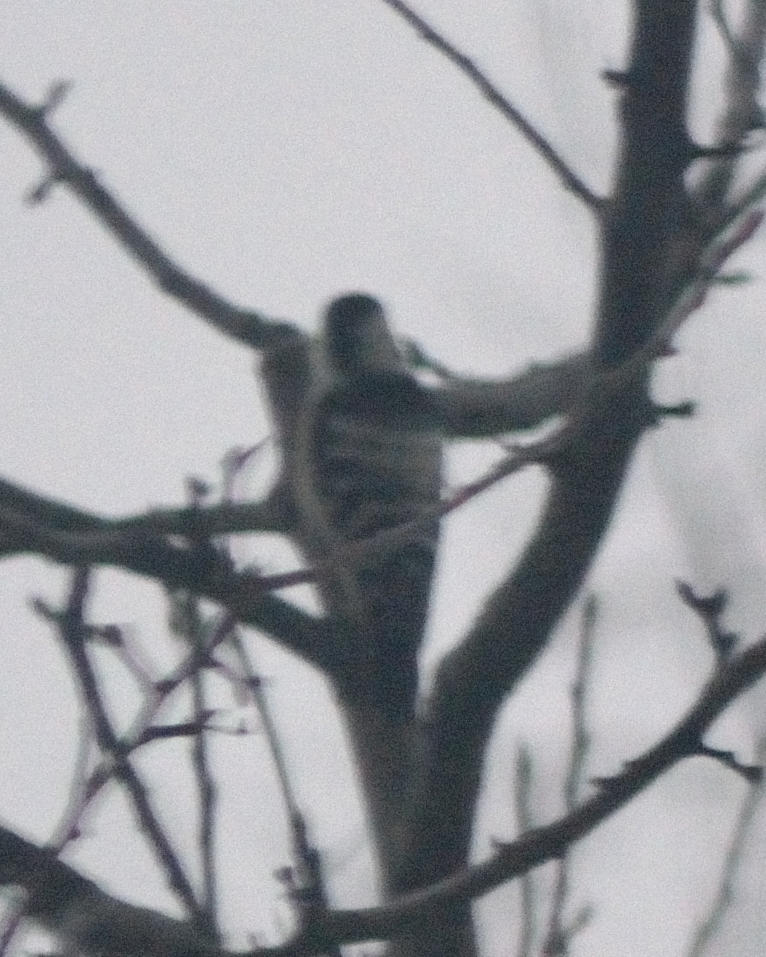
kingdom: Animalia
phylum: Chordata
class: Aves
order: Piciformes
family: Picidae
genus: Dryobates
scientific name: Dryobates minor
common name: Lesser spotted woodpecker
